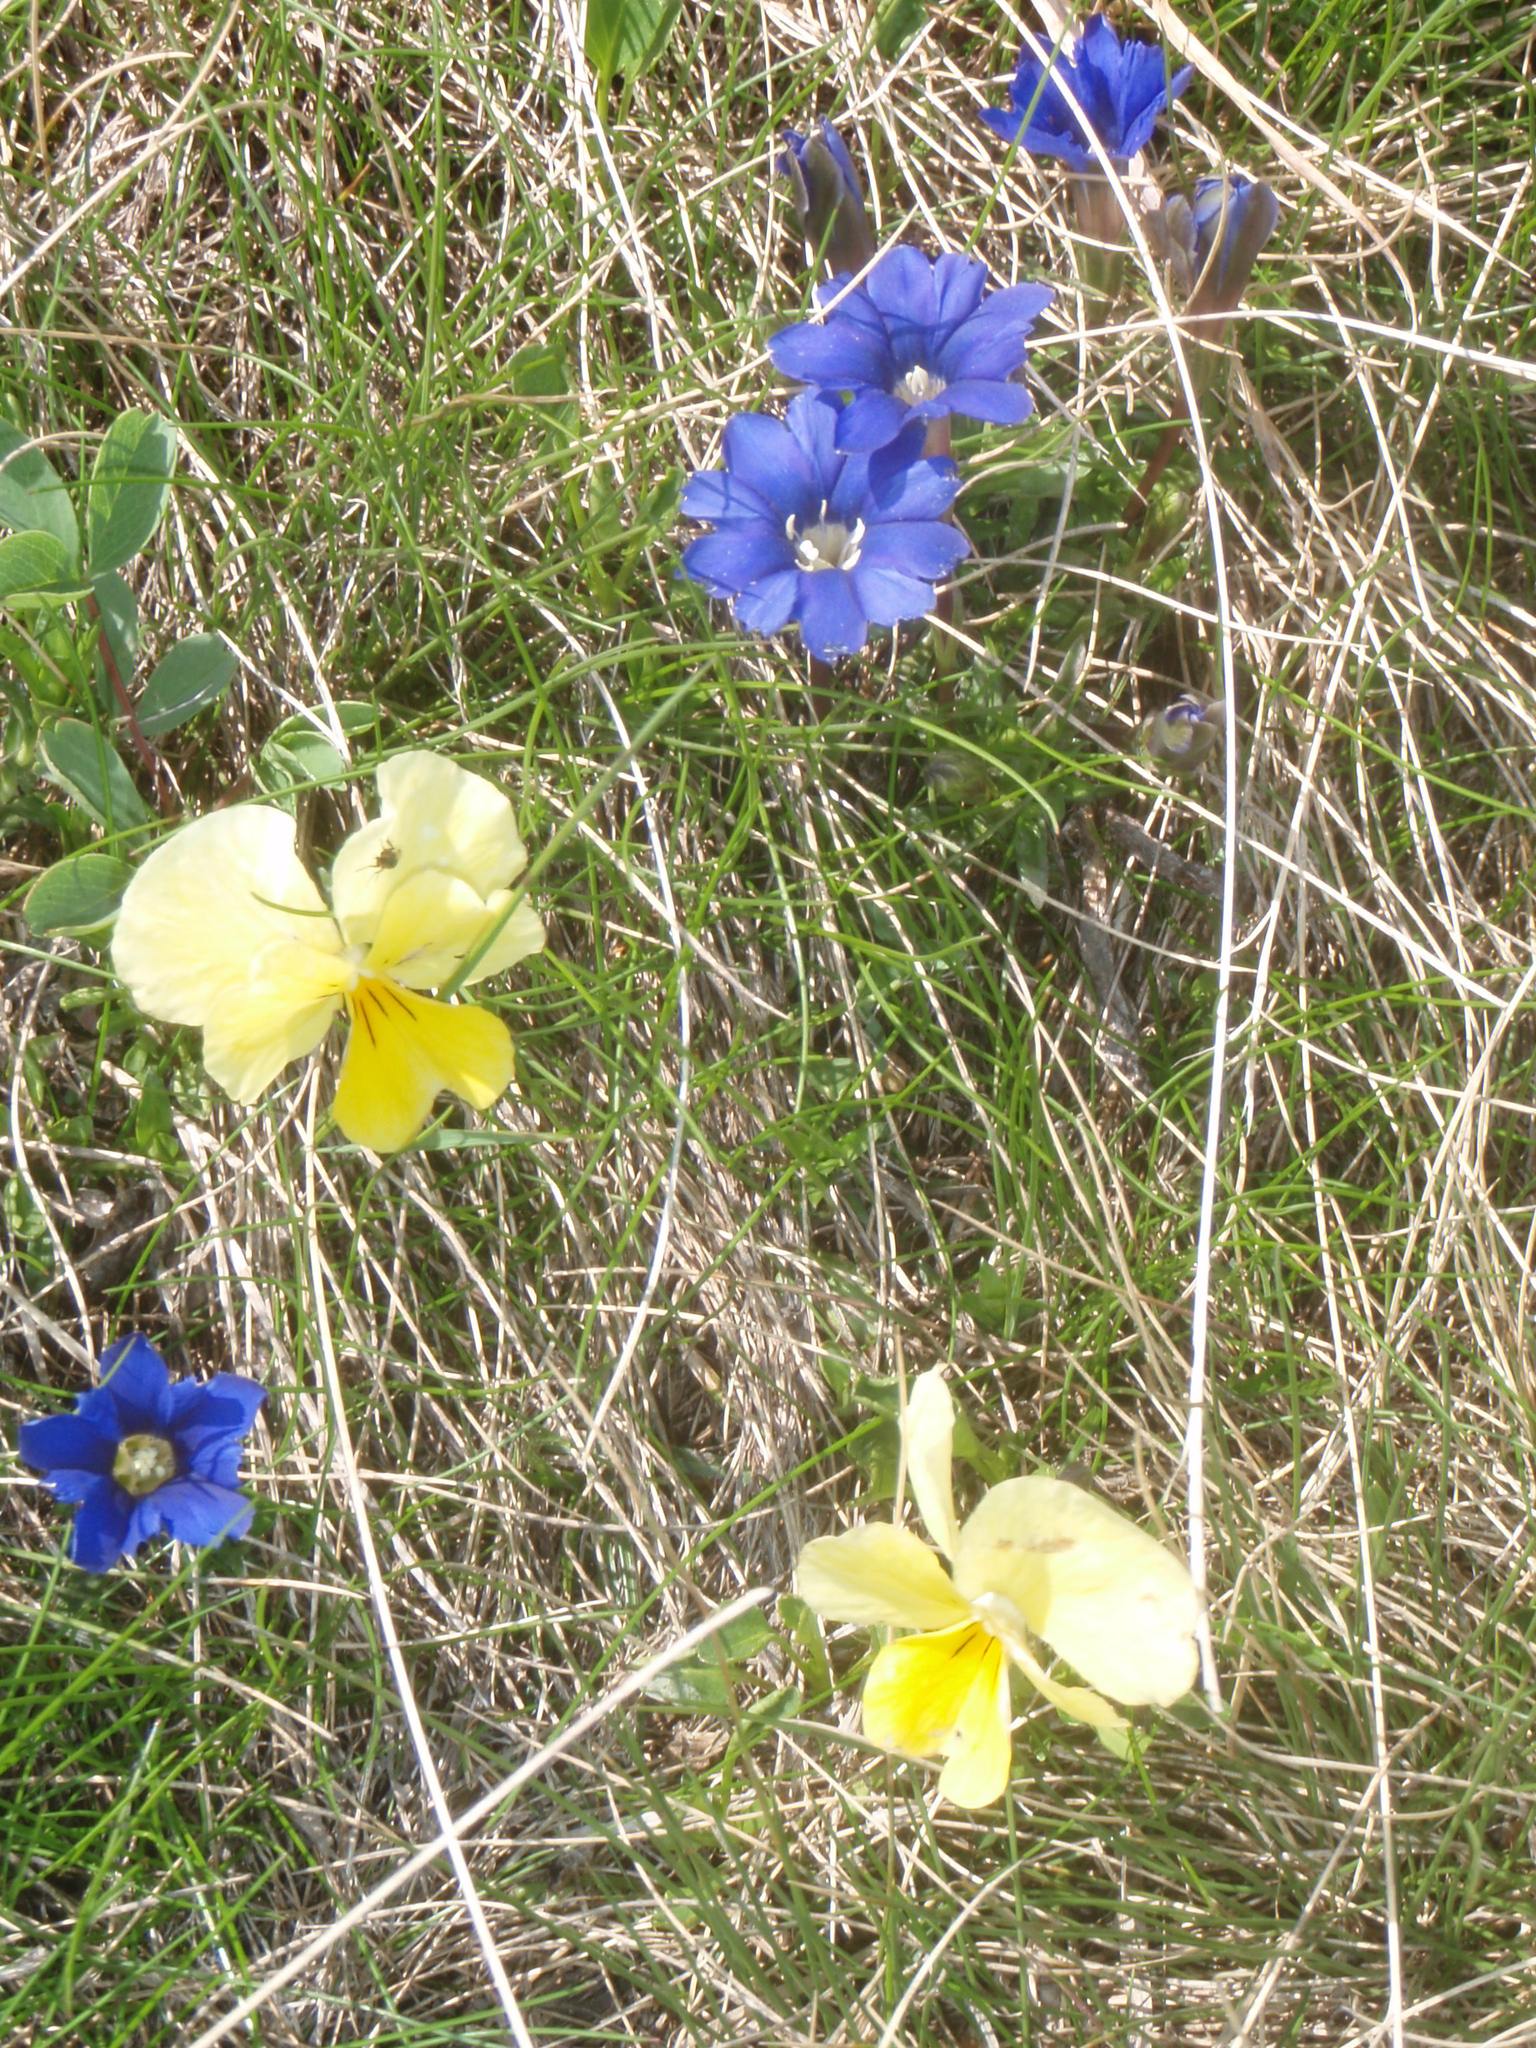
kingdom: Plantae
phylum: Tracheophyta
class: Magnoliopsida
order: Gentianales
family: Gentianaceae
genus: Gentiana
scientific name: Gentiana dshimilensis
